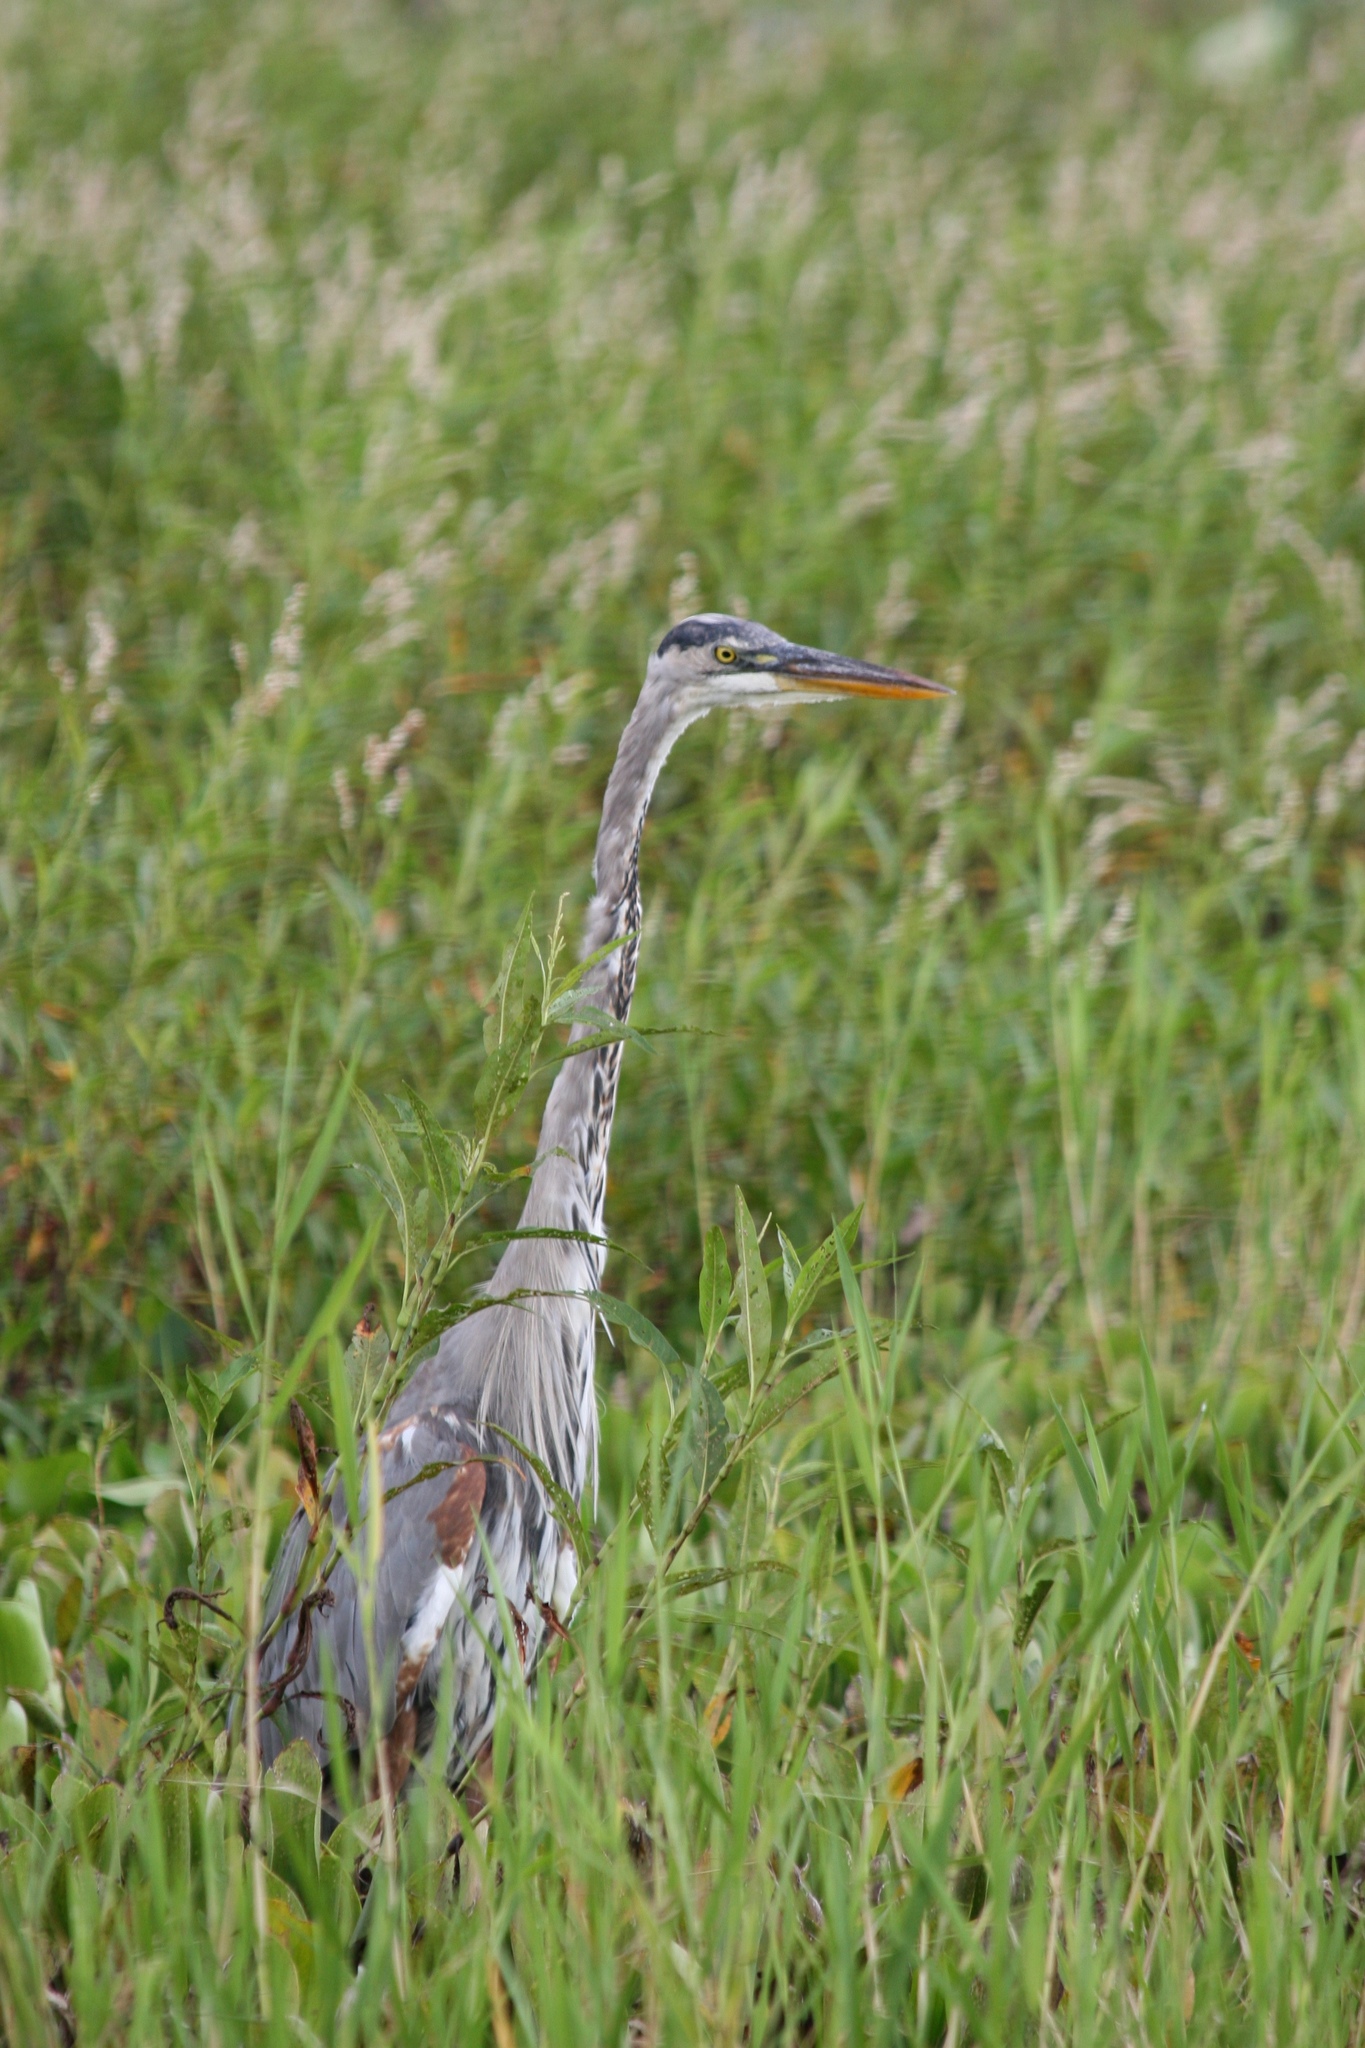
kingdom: Animalia
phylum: Chordata
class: Aves
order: Pelecaniformes
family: Ardeidae
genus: Ardea
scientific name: Ardea herodias
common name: Great blue heron
